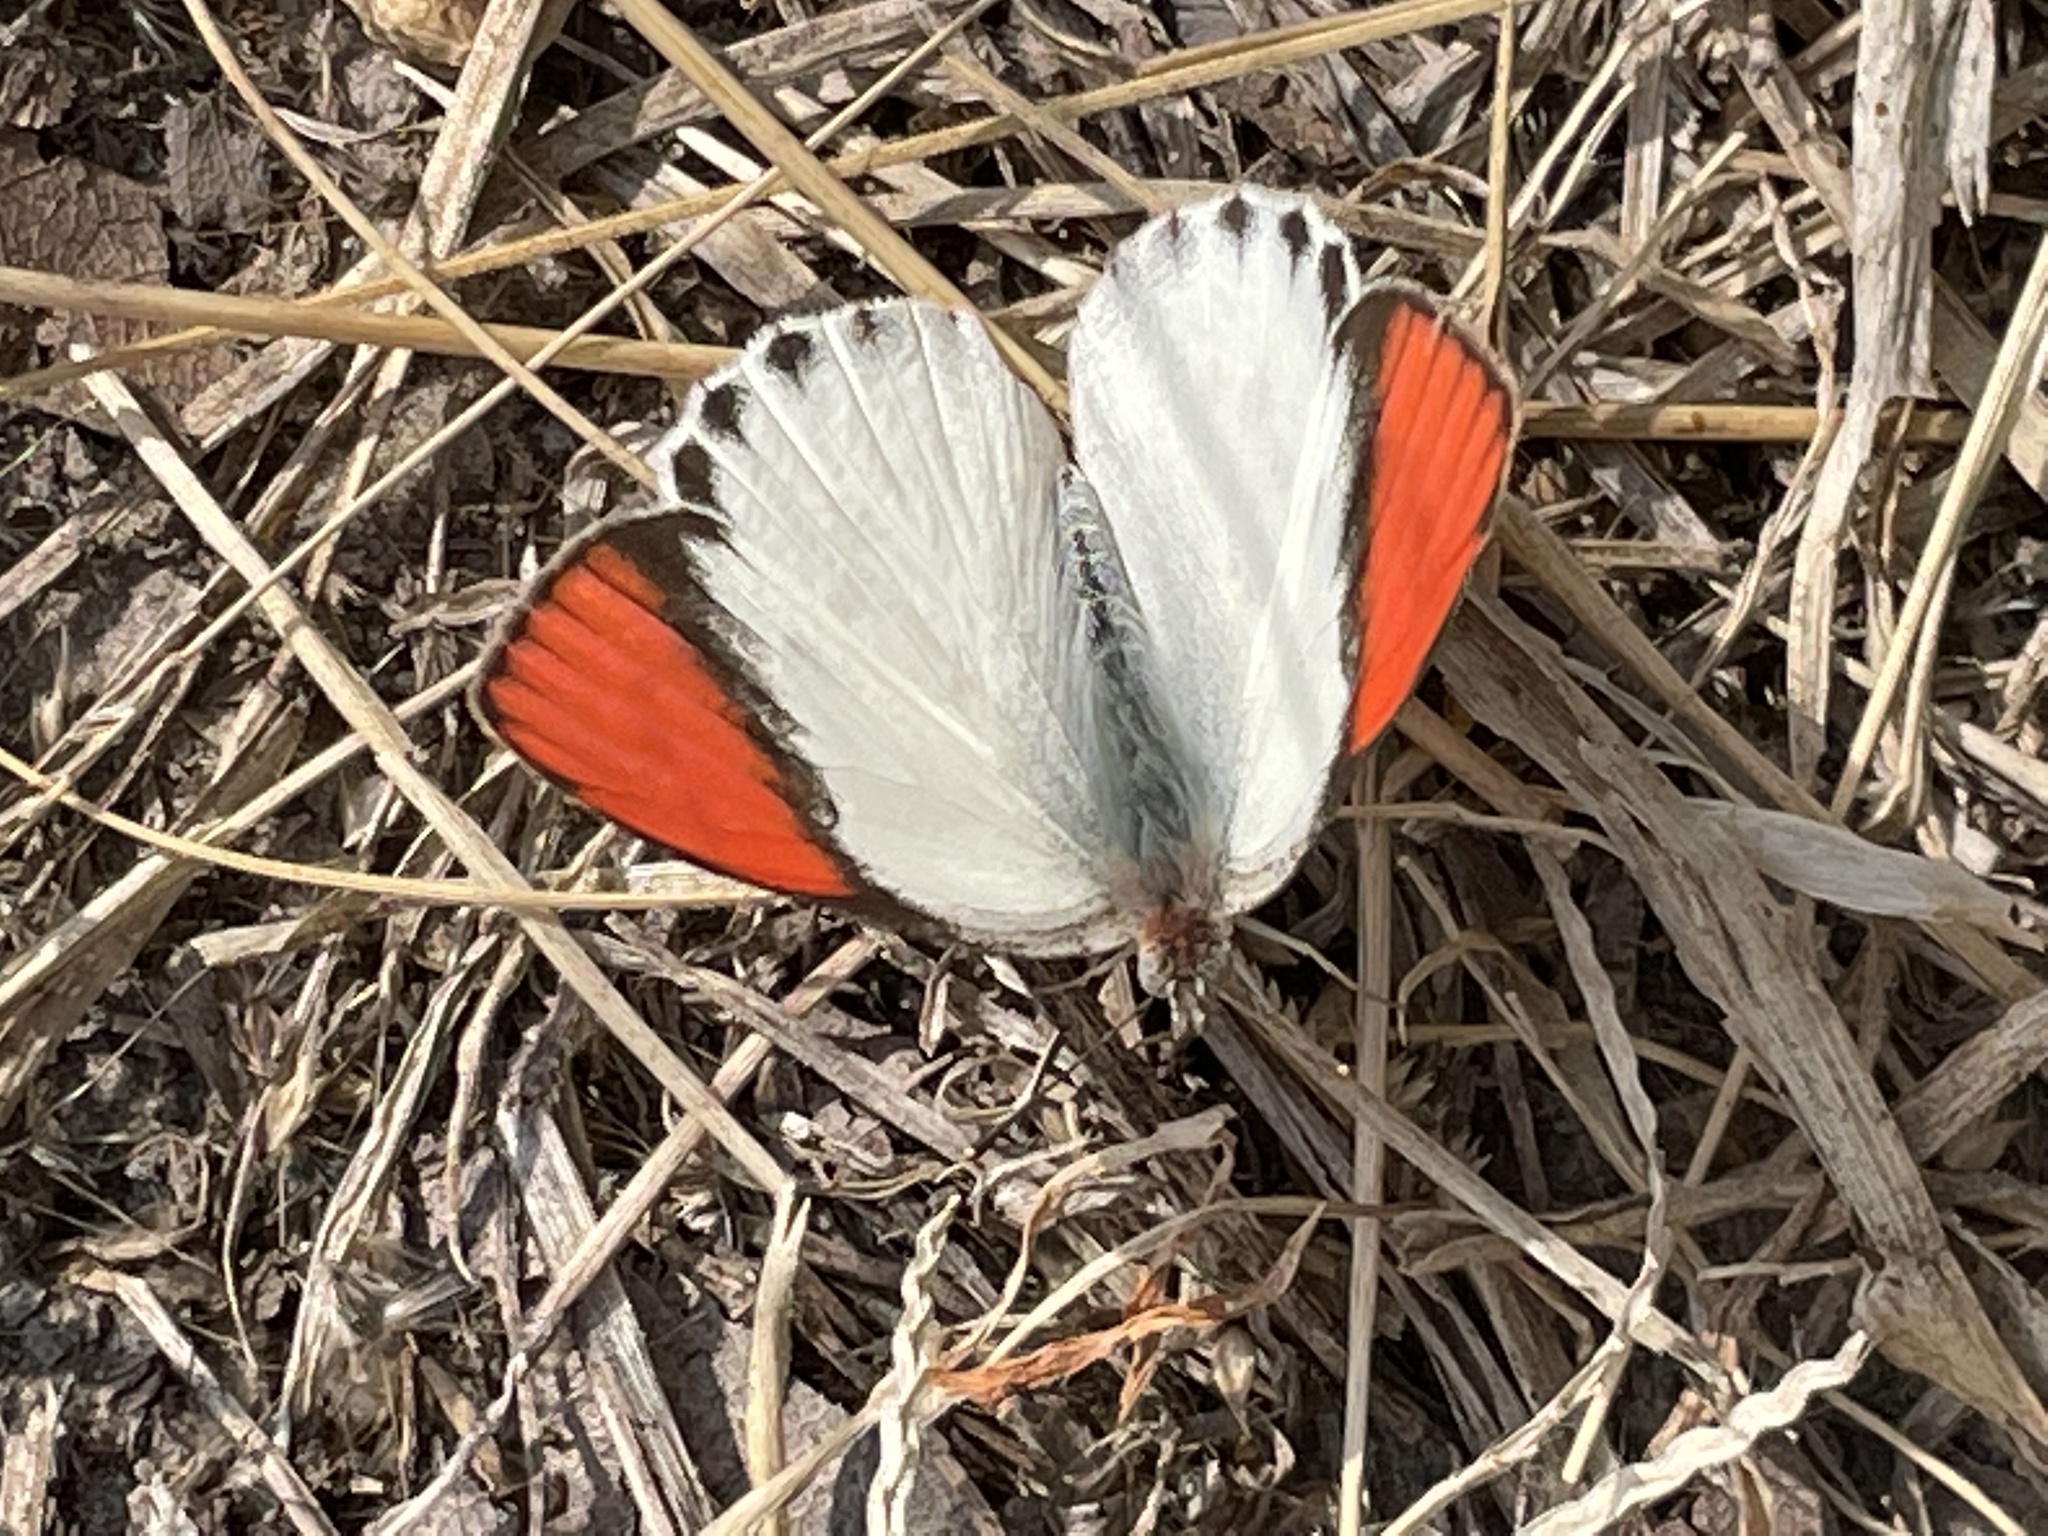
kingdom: Animalia
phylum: Arthropoda
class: Insecta
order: Lepidoptera
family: Pieridae
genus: Colotis
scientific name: Colotis annae
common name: Scarlet tip
